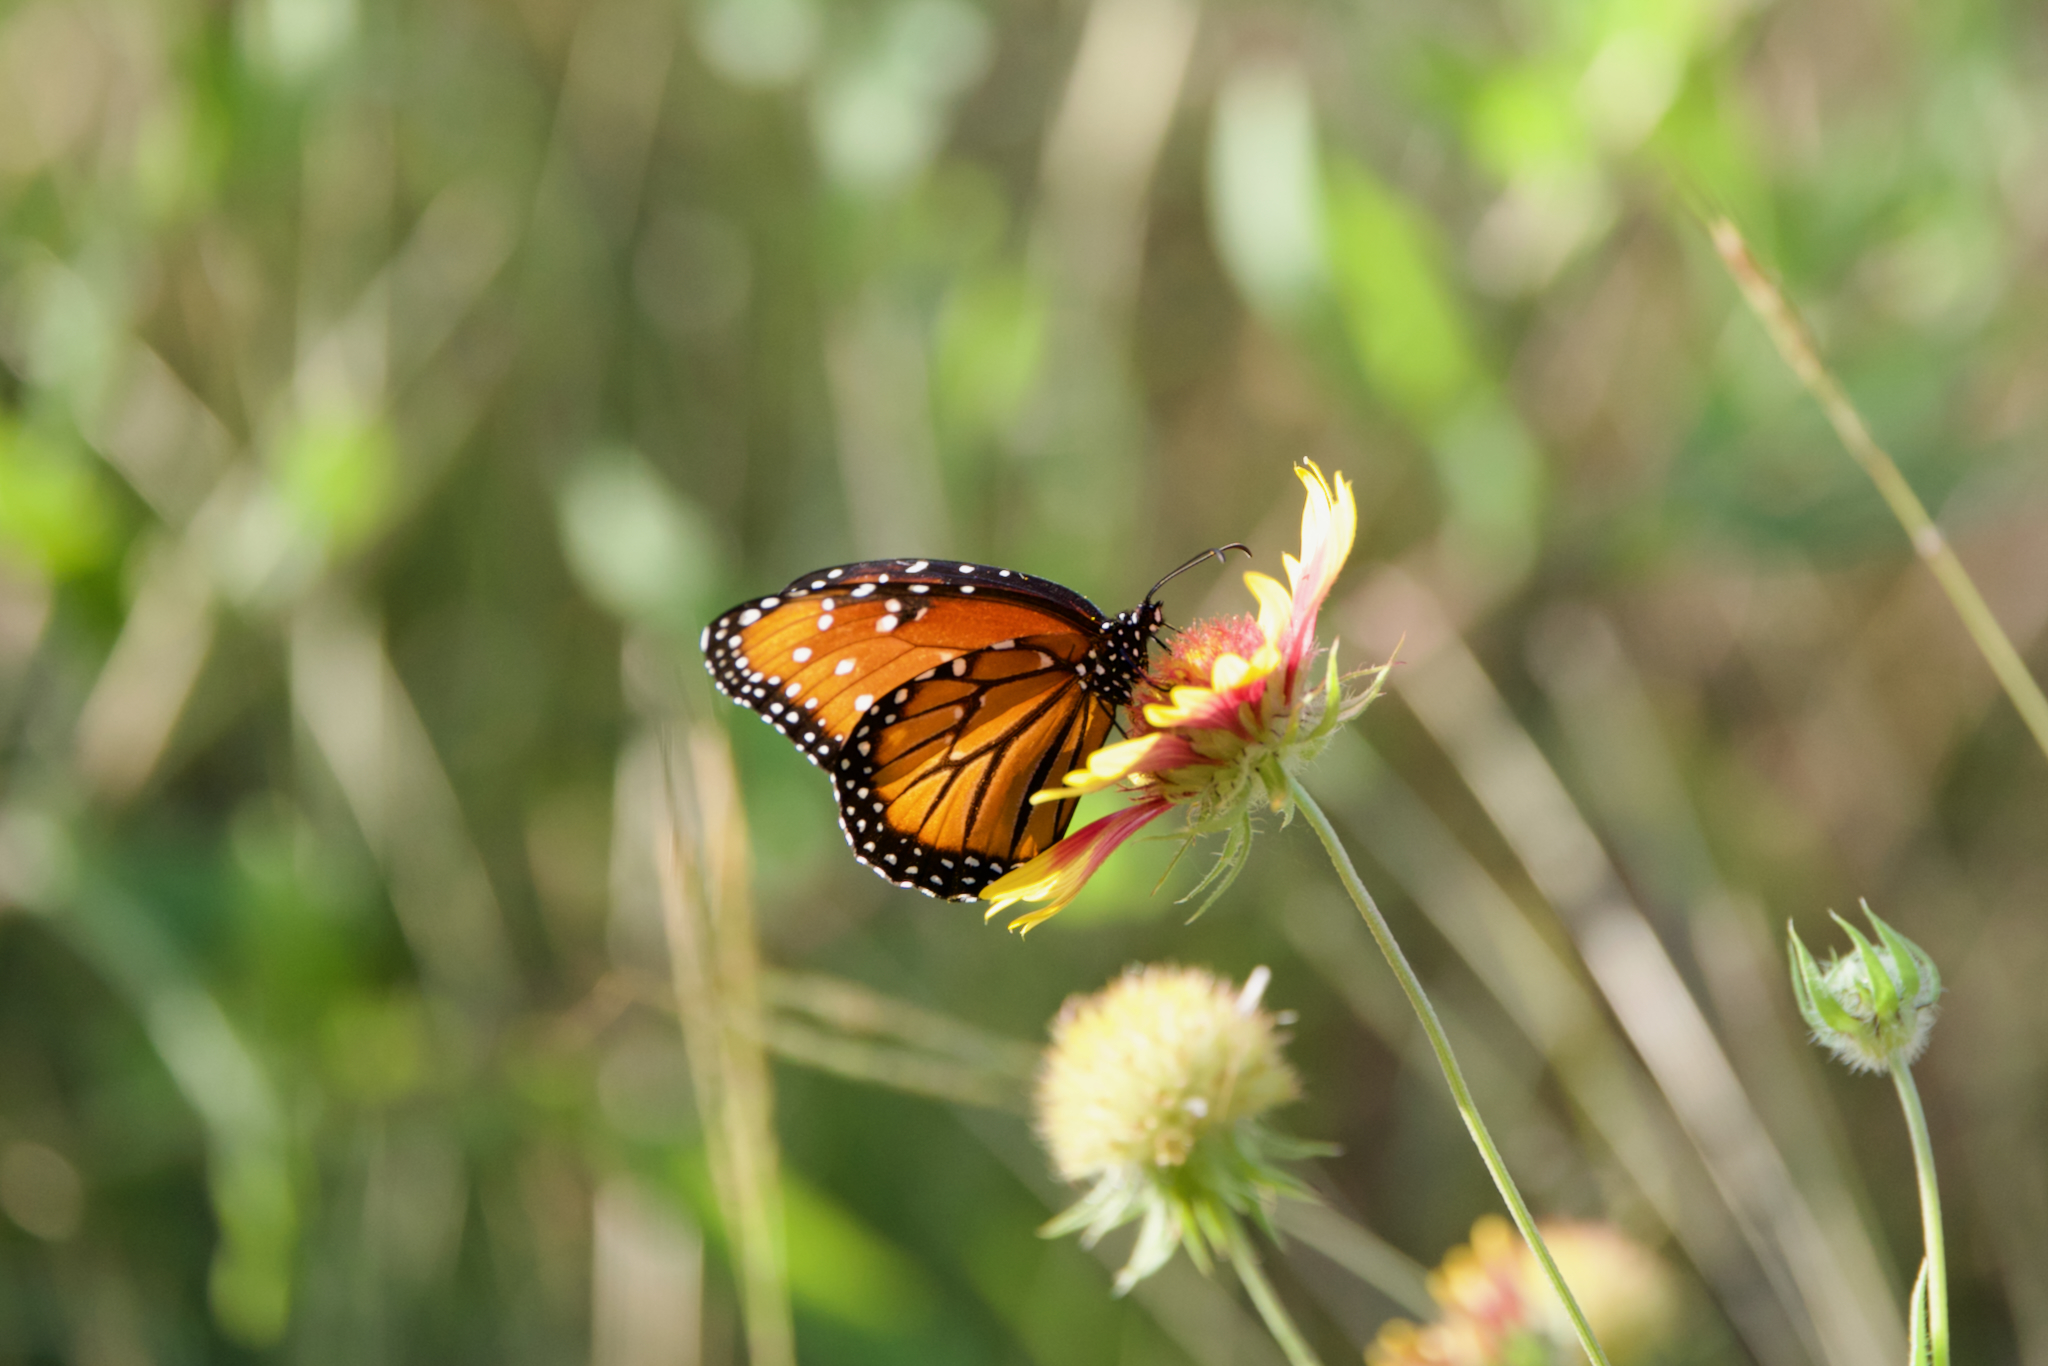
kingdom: Animalia
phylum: Arthropoda
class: Insecta
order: Lepidoptera
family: Nymphalidae
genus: Danaus
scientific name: Danaus gilippus
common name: Queen
